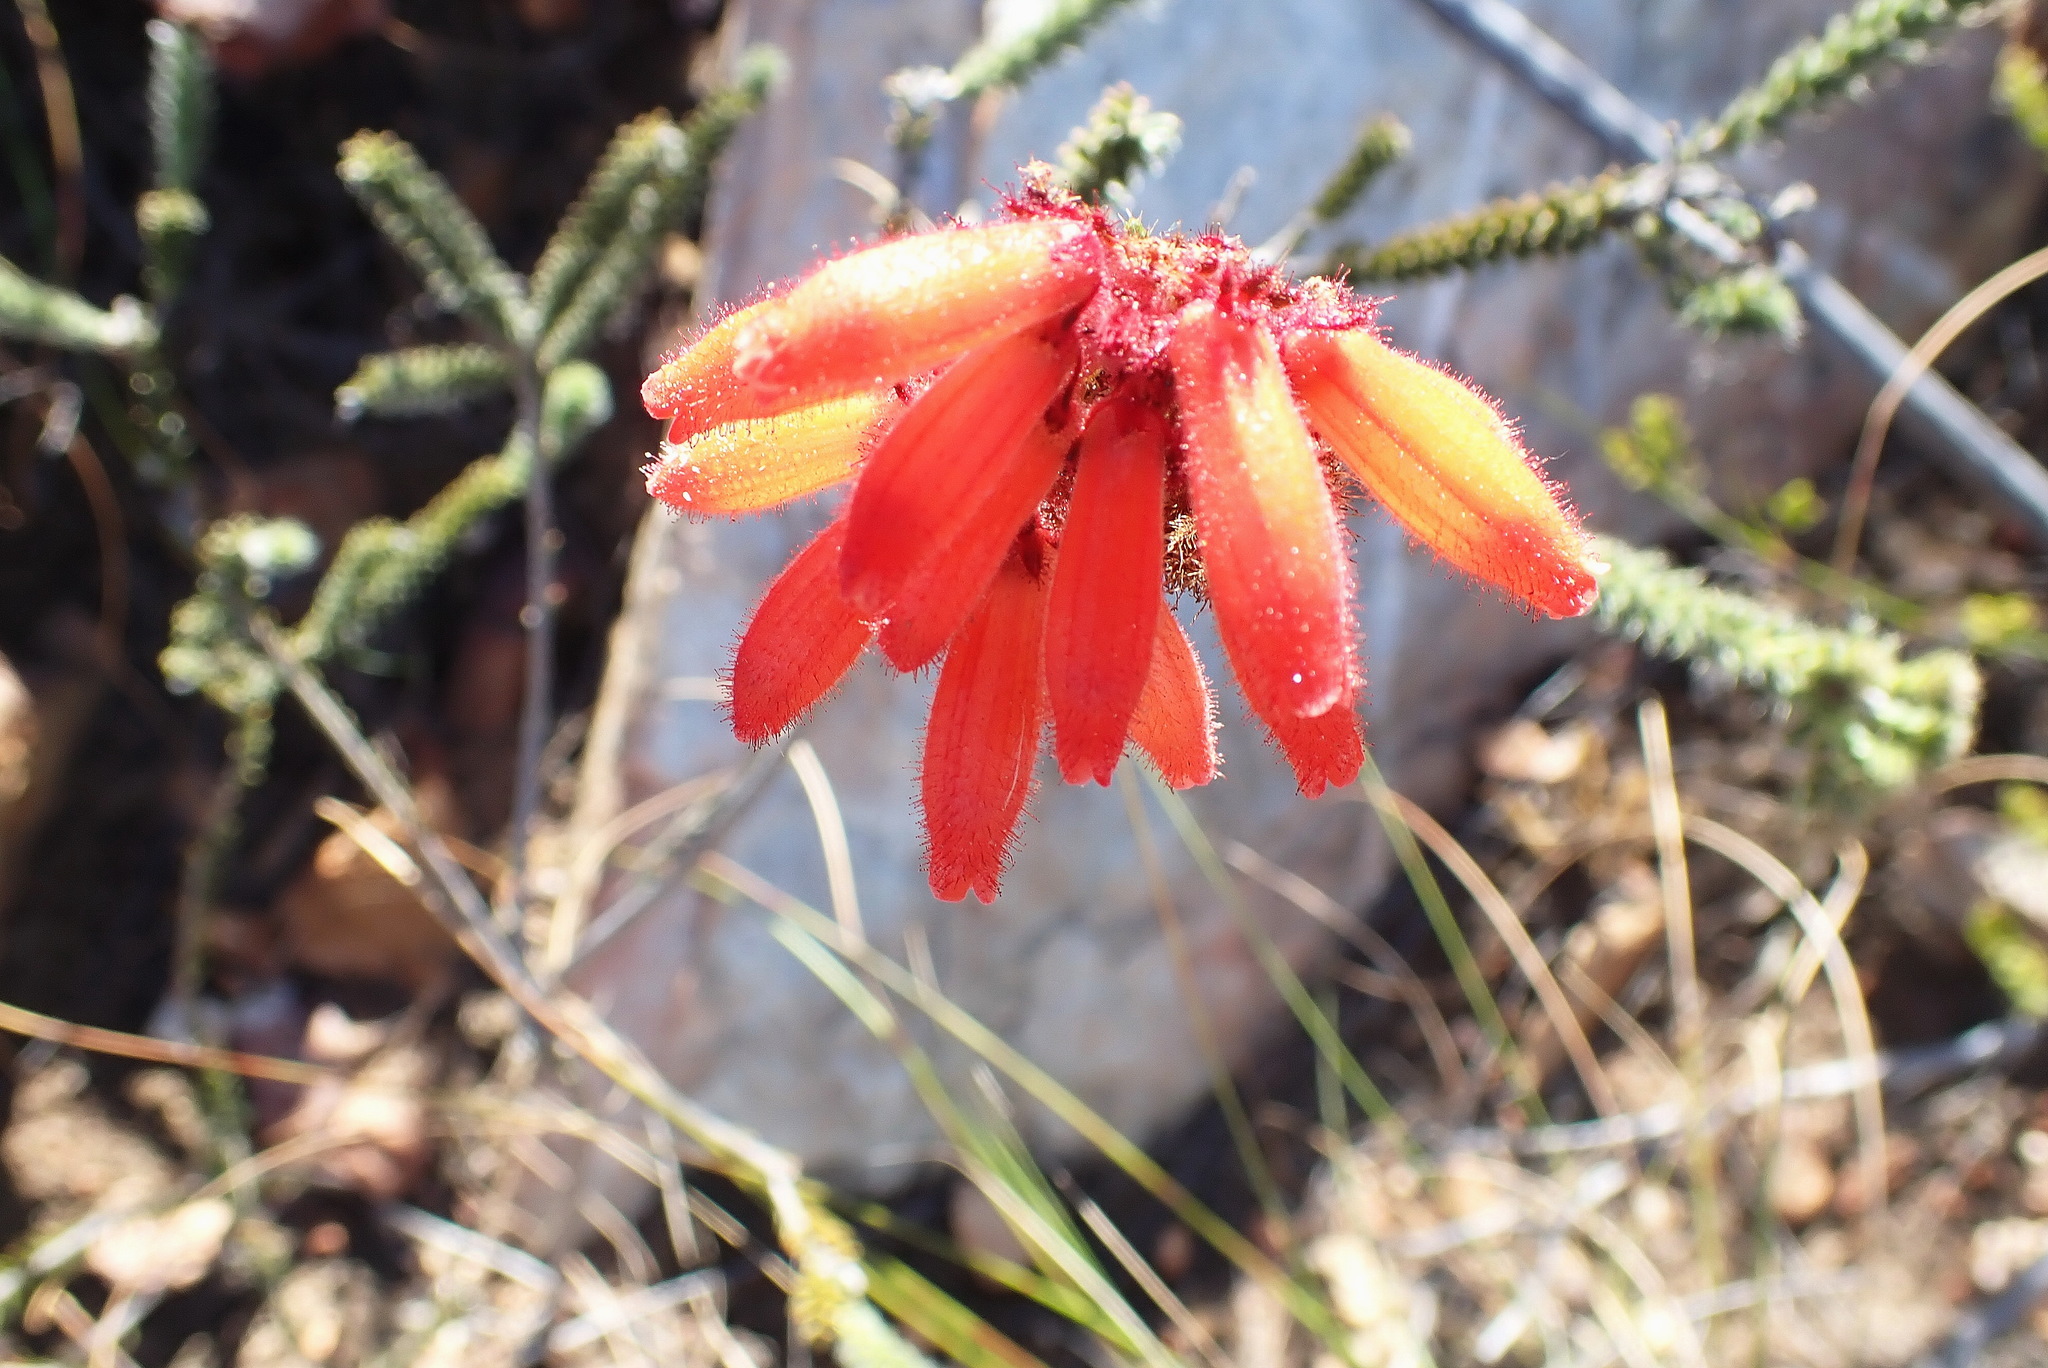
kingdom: Plantae
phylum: Tracheophyta
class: Magnoliopsida
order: Ericales
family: Ericaceae
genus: Erica
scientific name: Erica cerinthoides
